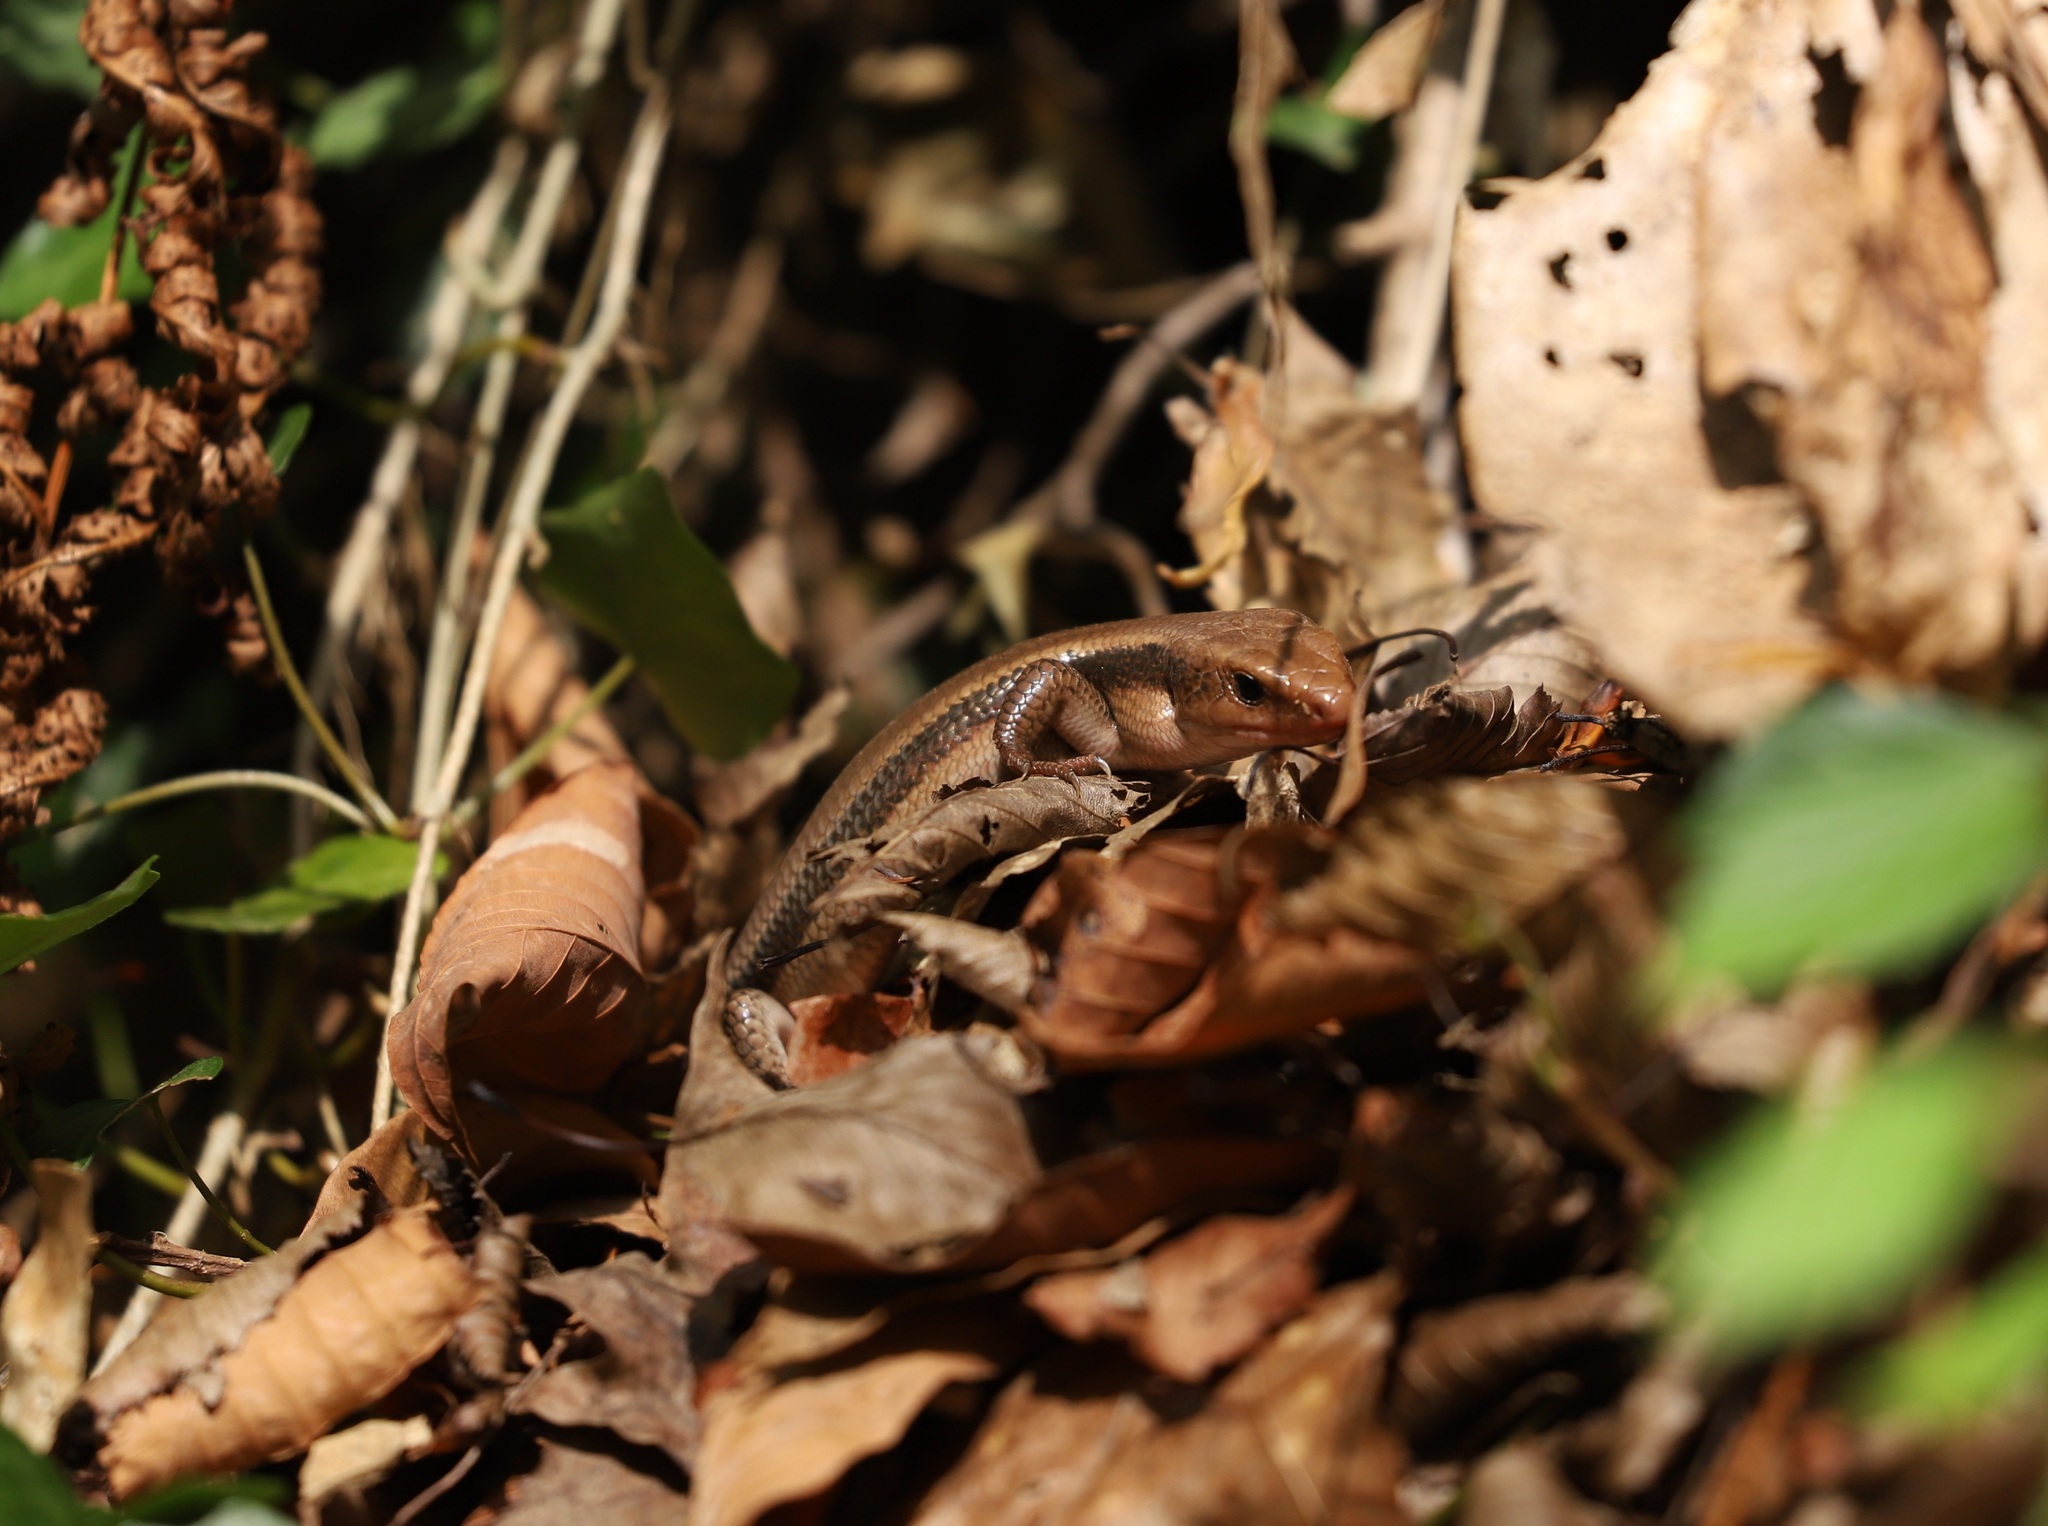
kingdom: Animalia
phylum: Chordata
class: Squamata
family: Scincidae
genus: Plestiodon
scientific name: Plestiodon finitimus
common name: Far eastern skink
